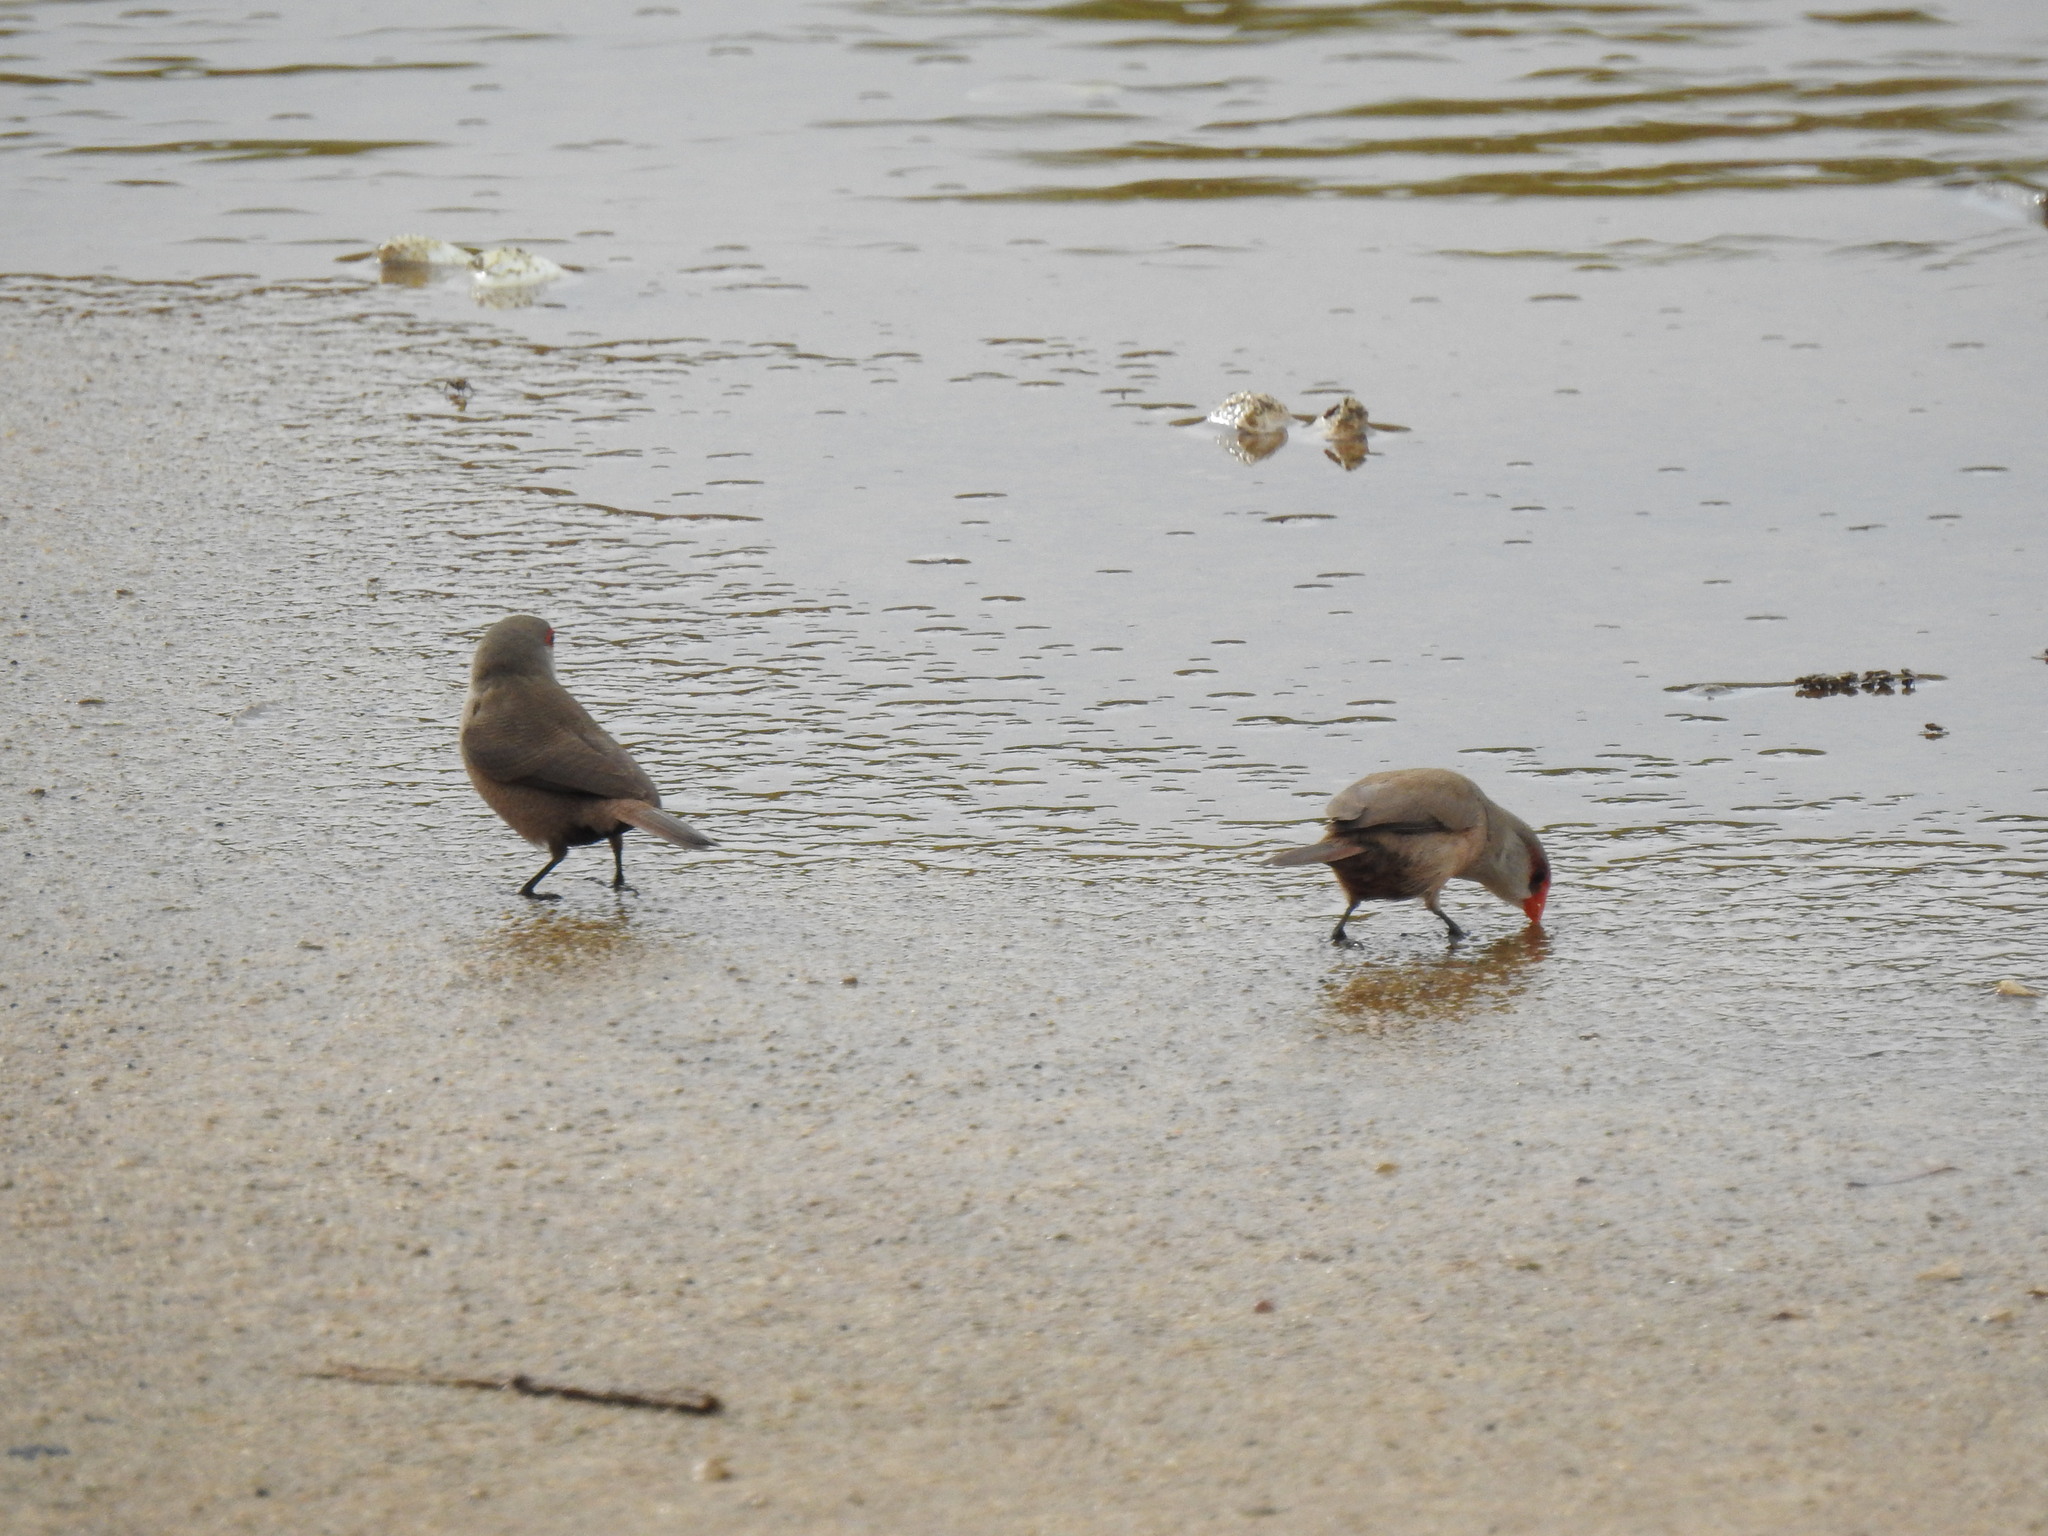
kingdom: Animalia
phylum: Chordata
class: Aves
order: Passeriformes
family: Estrildidae
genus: Estrilda
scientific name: Estrilda astrild
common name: Common waxbill
